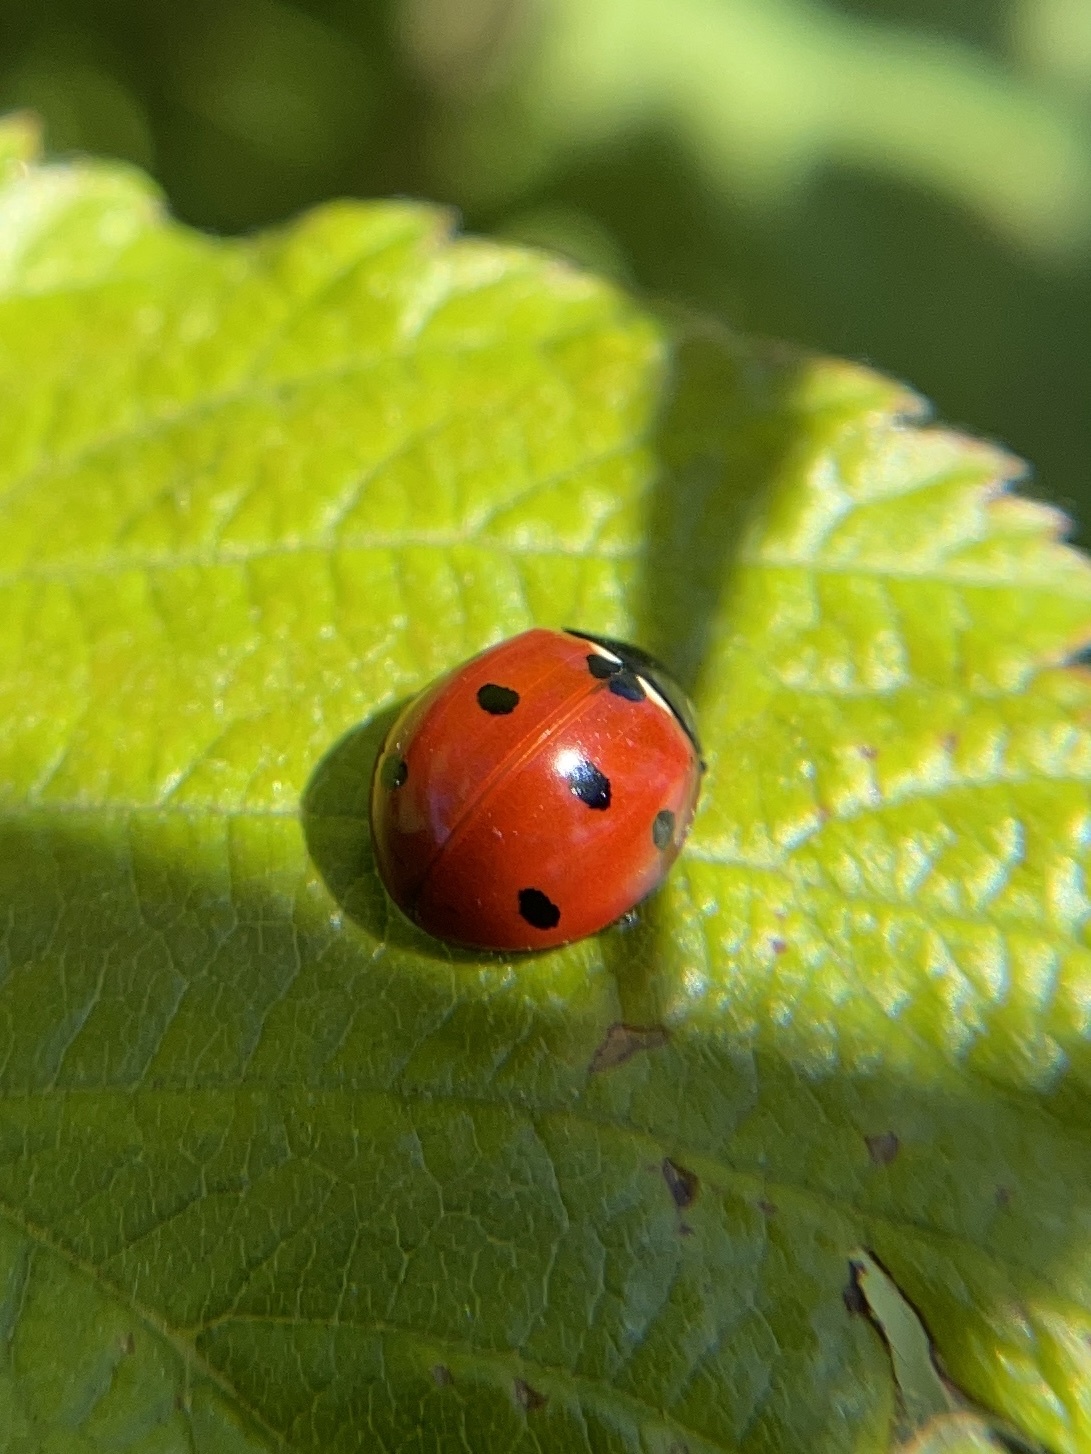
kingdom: Animalia
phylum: Arthropoda
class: Insecta
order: Coleoptera
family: Coccinellidae
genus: Coccinella
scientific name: Coccinella septempunctata
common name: Sevenspotted lady beetle
